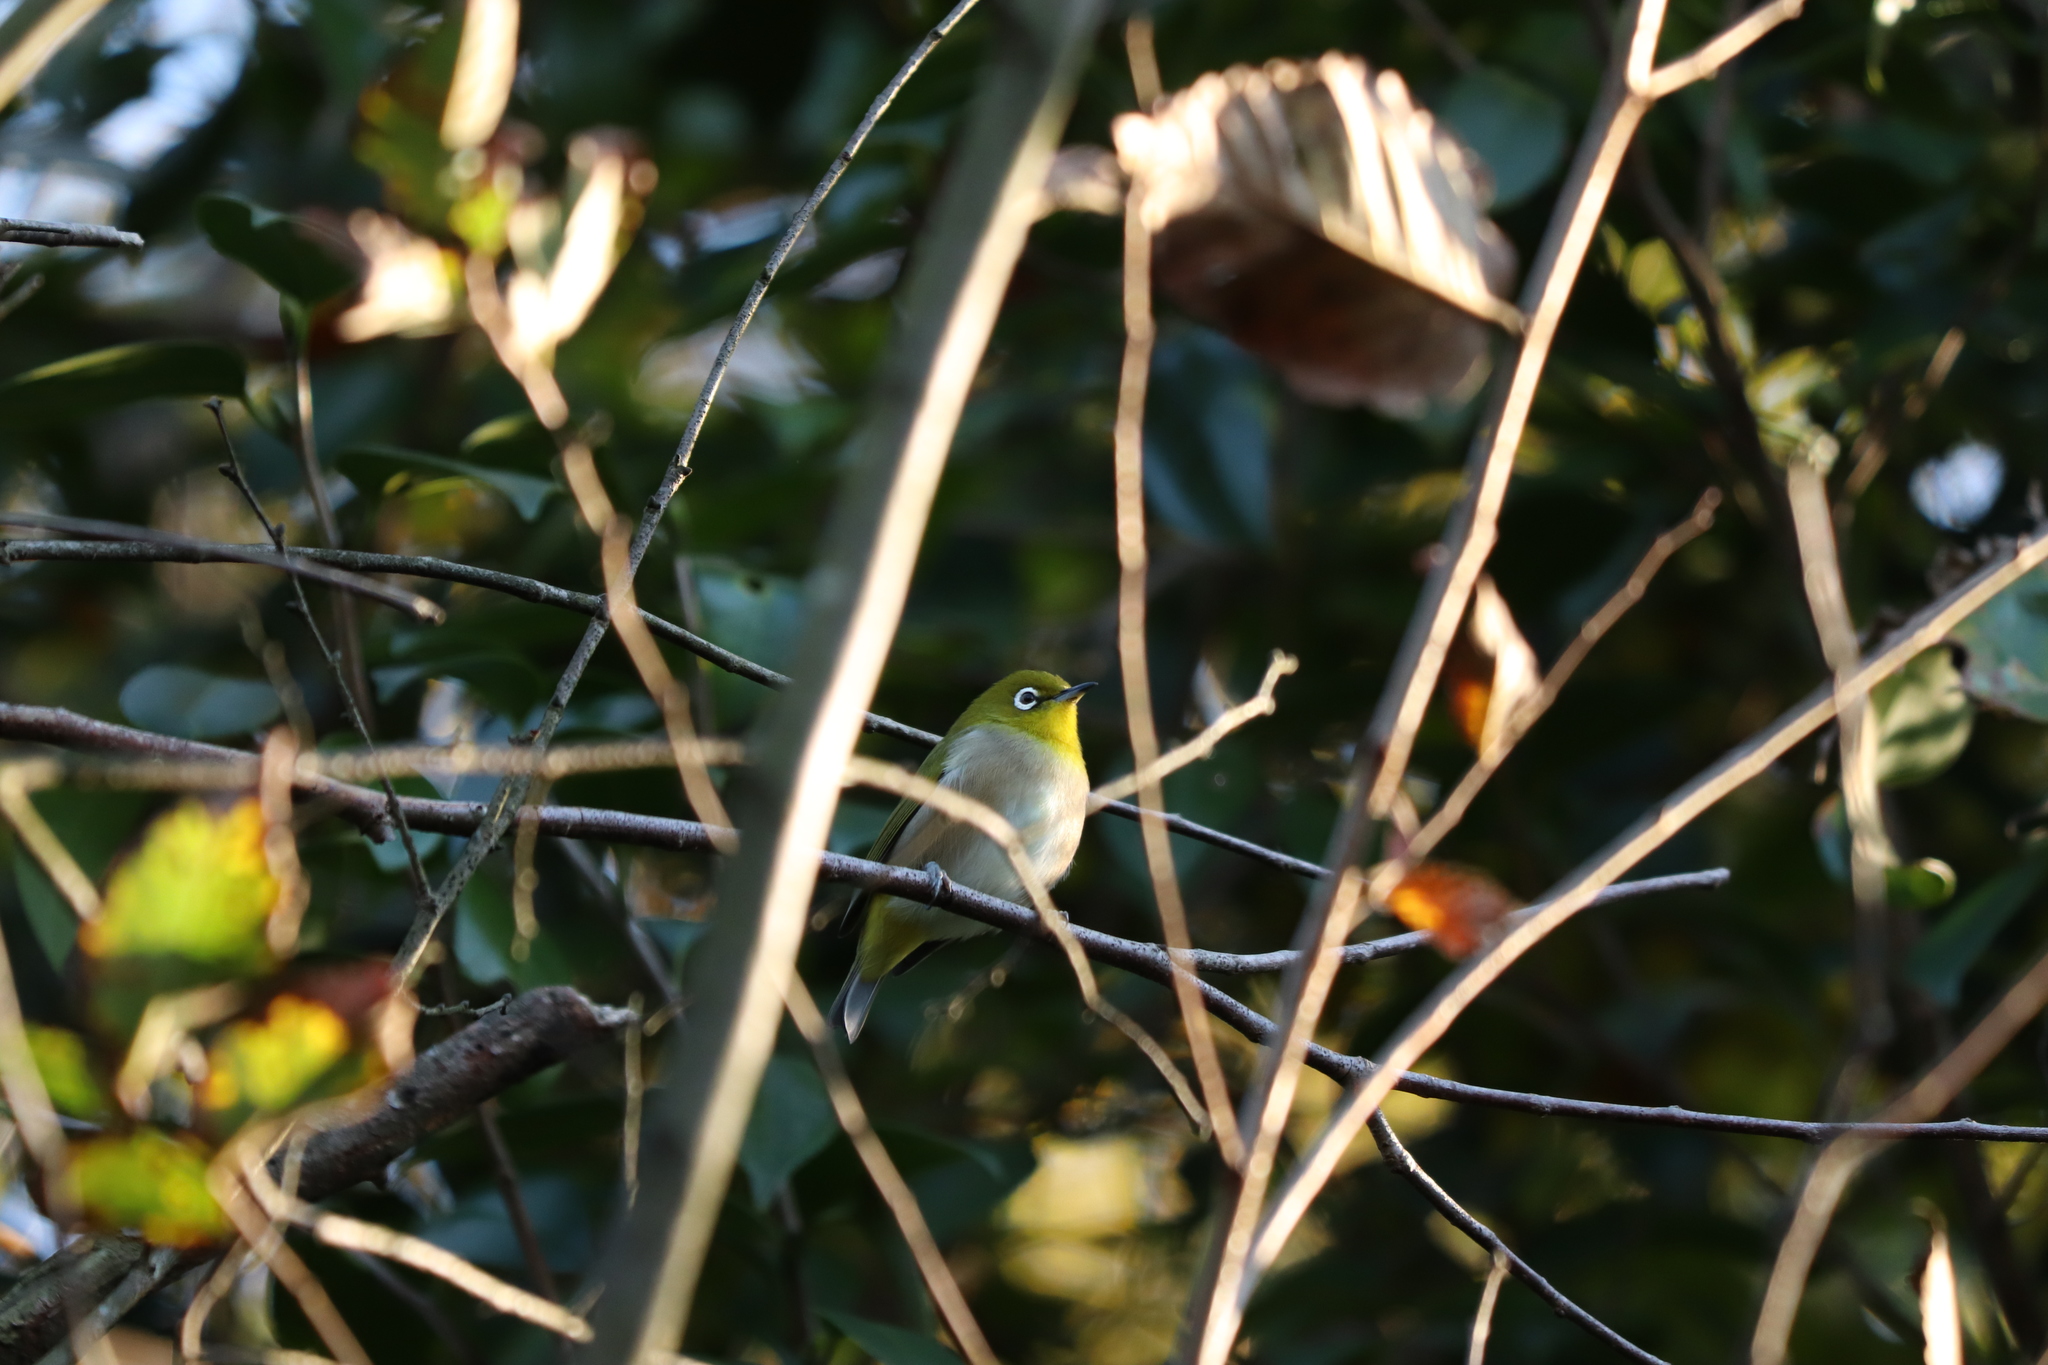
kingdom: Animalia
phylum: Chordata
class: Aves
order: Passeriformes
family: Zosteropidae
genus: Zosterops
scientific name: Zosterops japonicus
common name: Japanese white-eye
